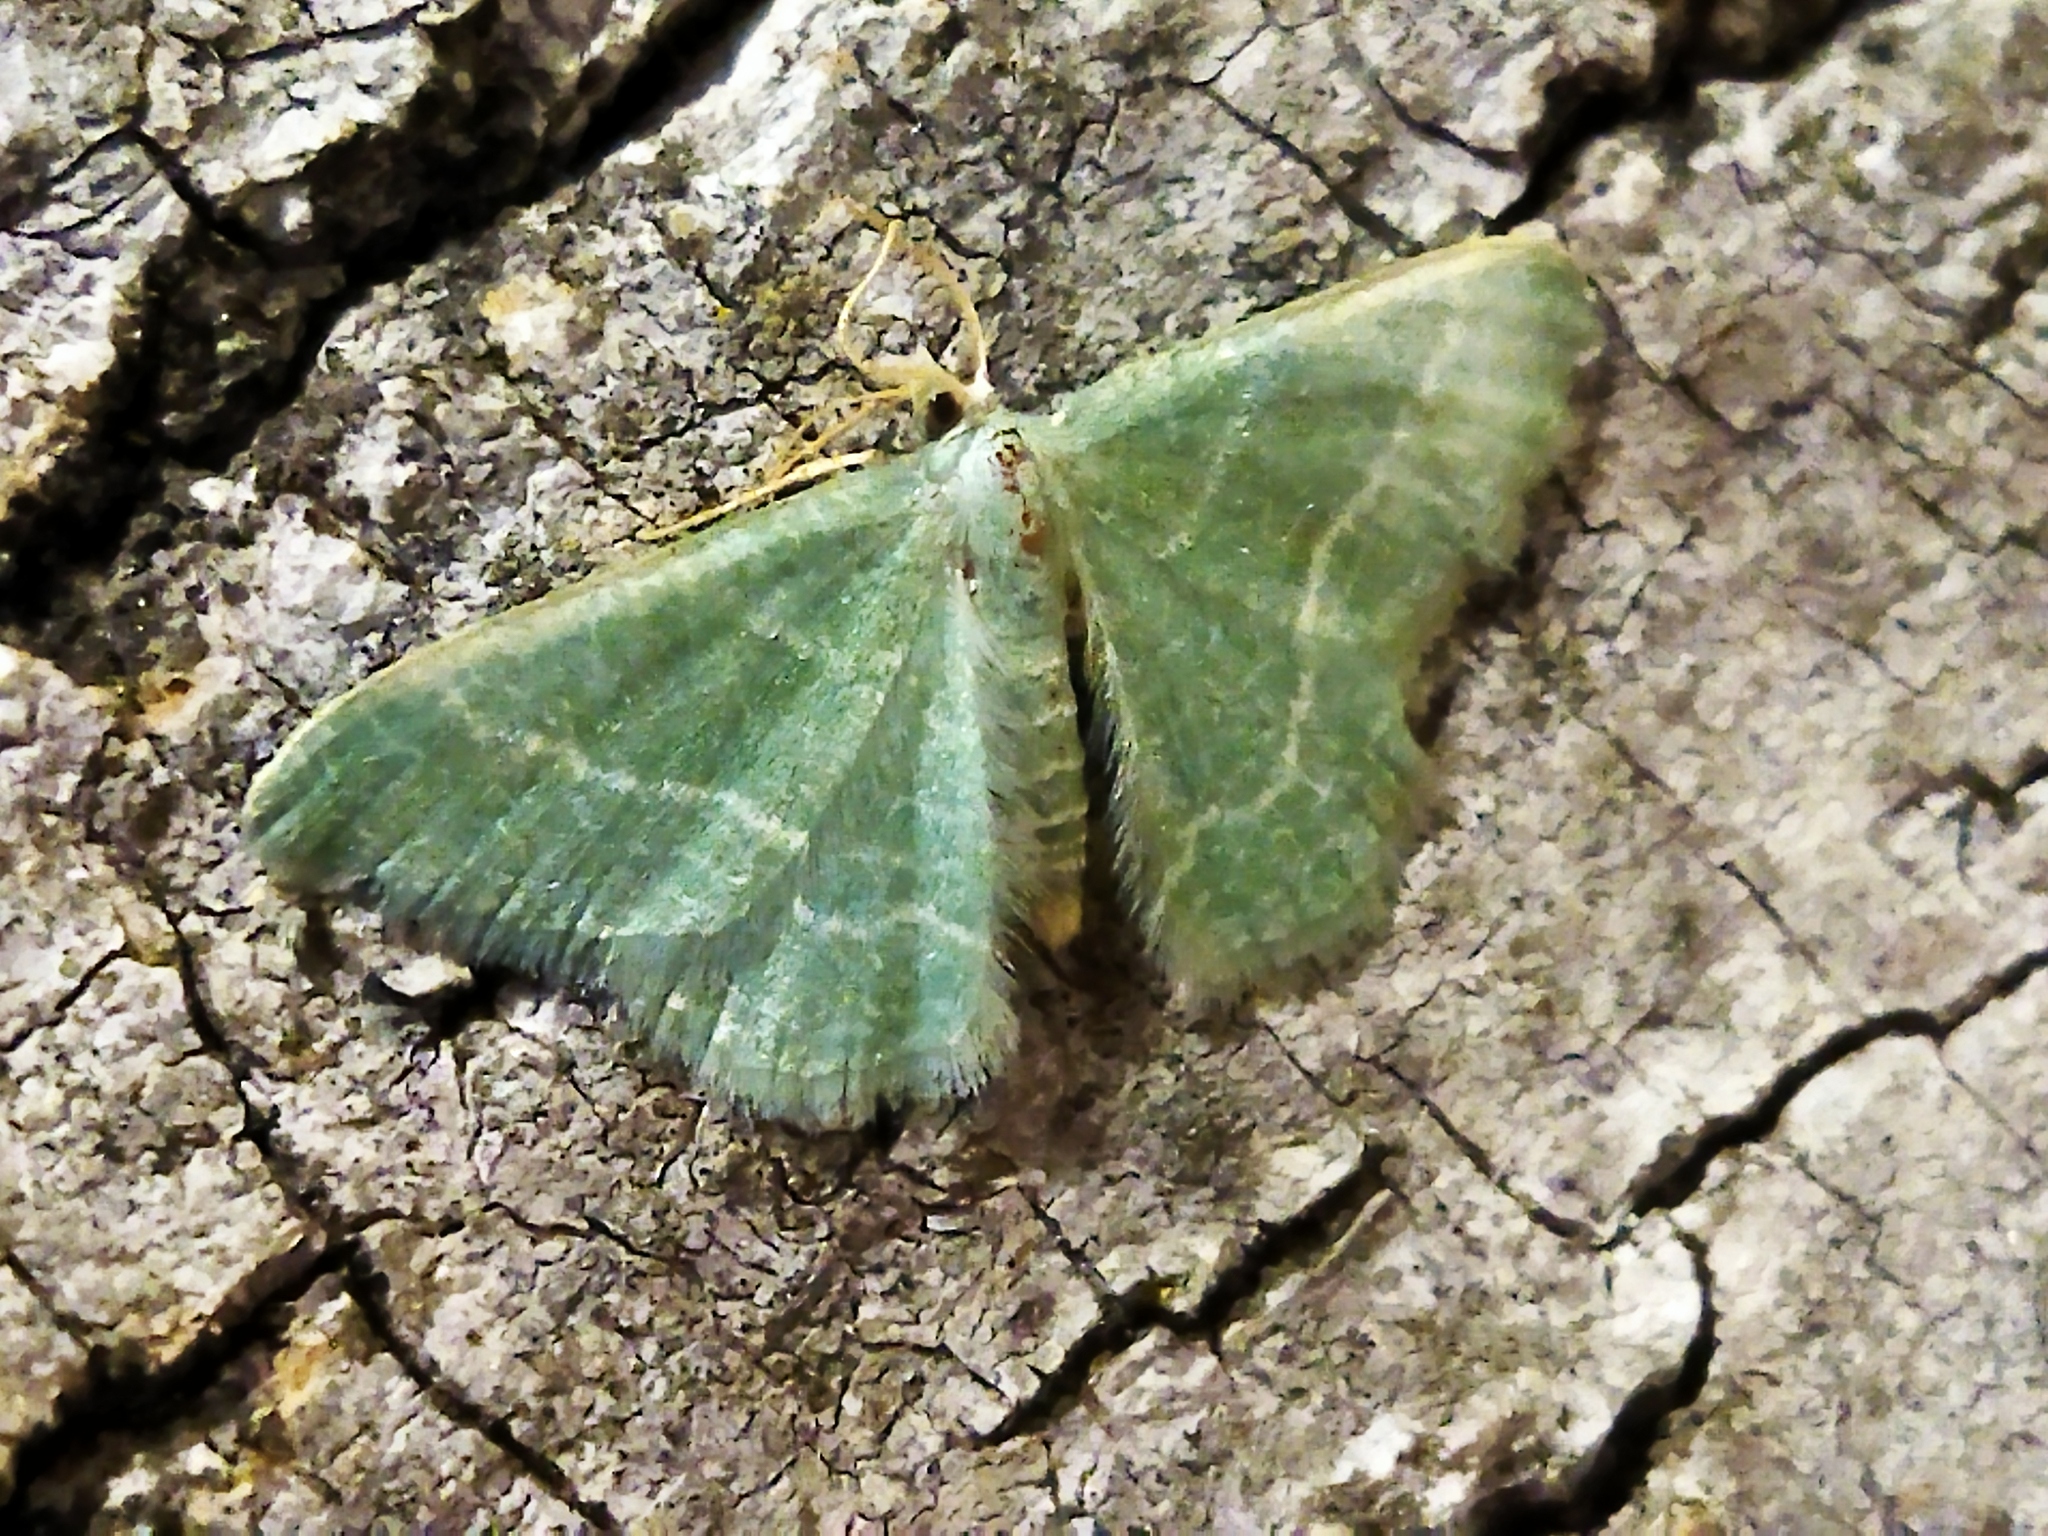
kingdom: Animalia
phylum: Arthropoda
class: Insecta
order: Lepidoptera
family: Geometridae
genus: Chlorissa
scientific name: Chlorissa etruscaria
